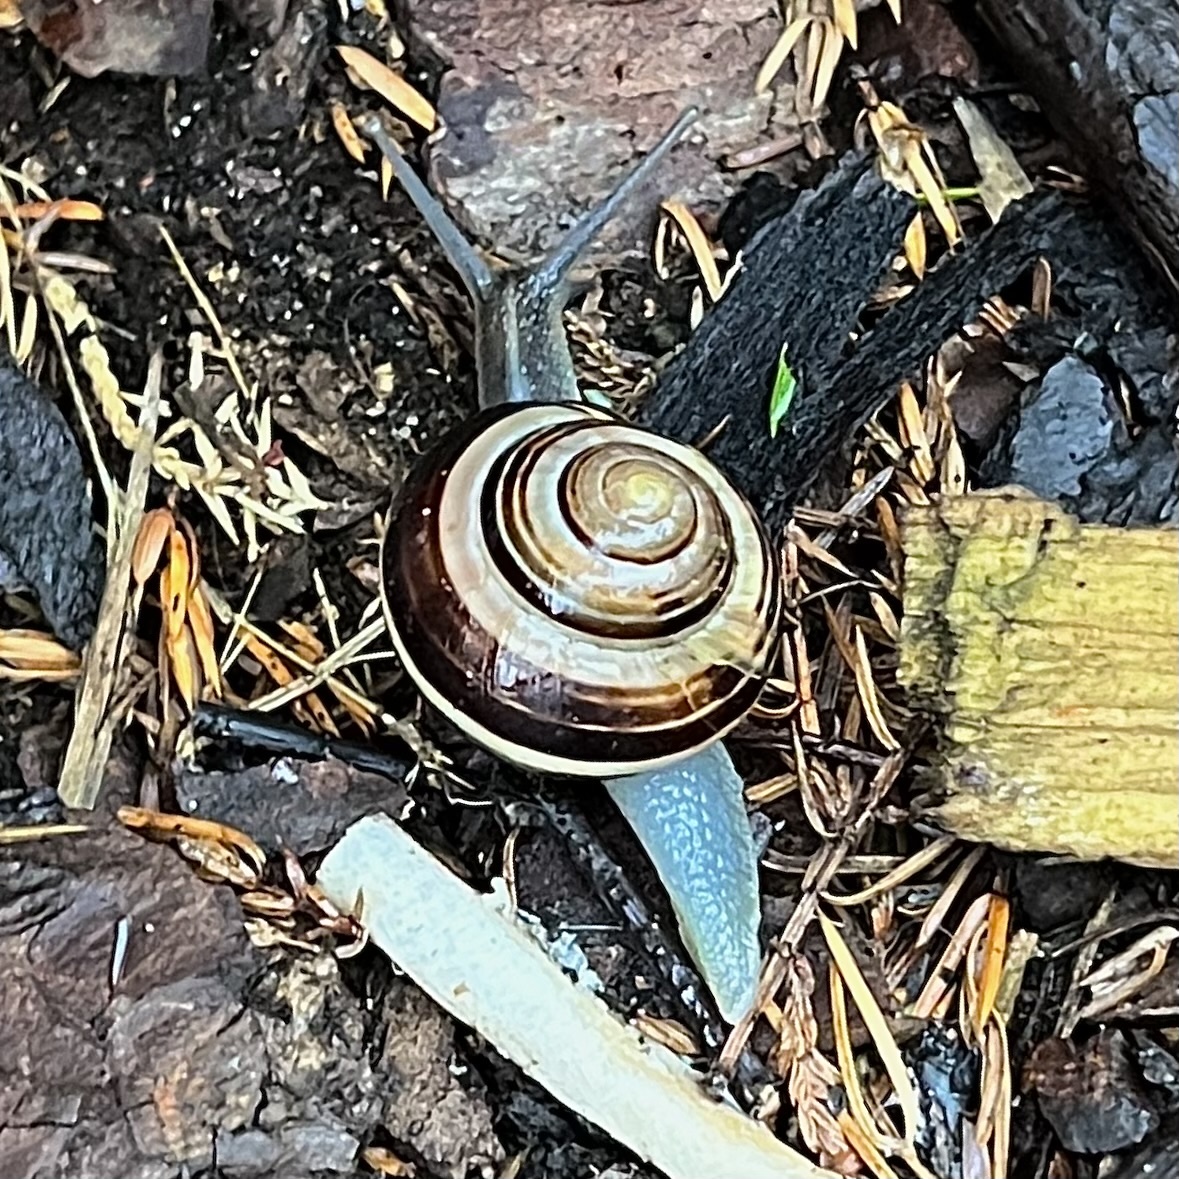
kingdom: Animalia
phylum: Mollusca
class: Gastropoda
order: Stylommatophora
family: Helicidae
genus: Cepaea
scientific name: Cepaea nemoralis
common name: Grovesnail
